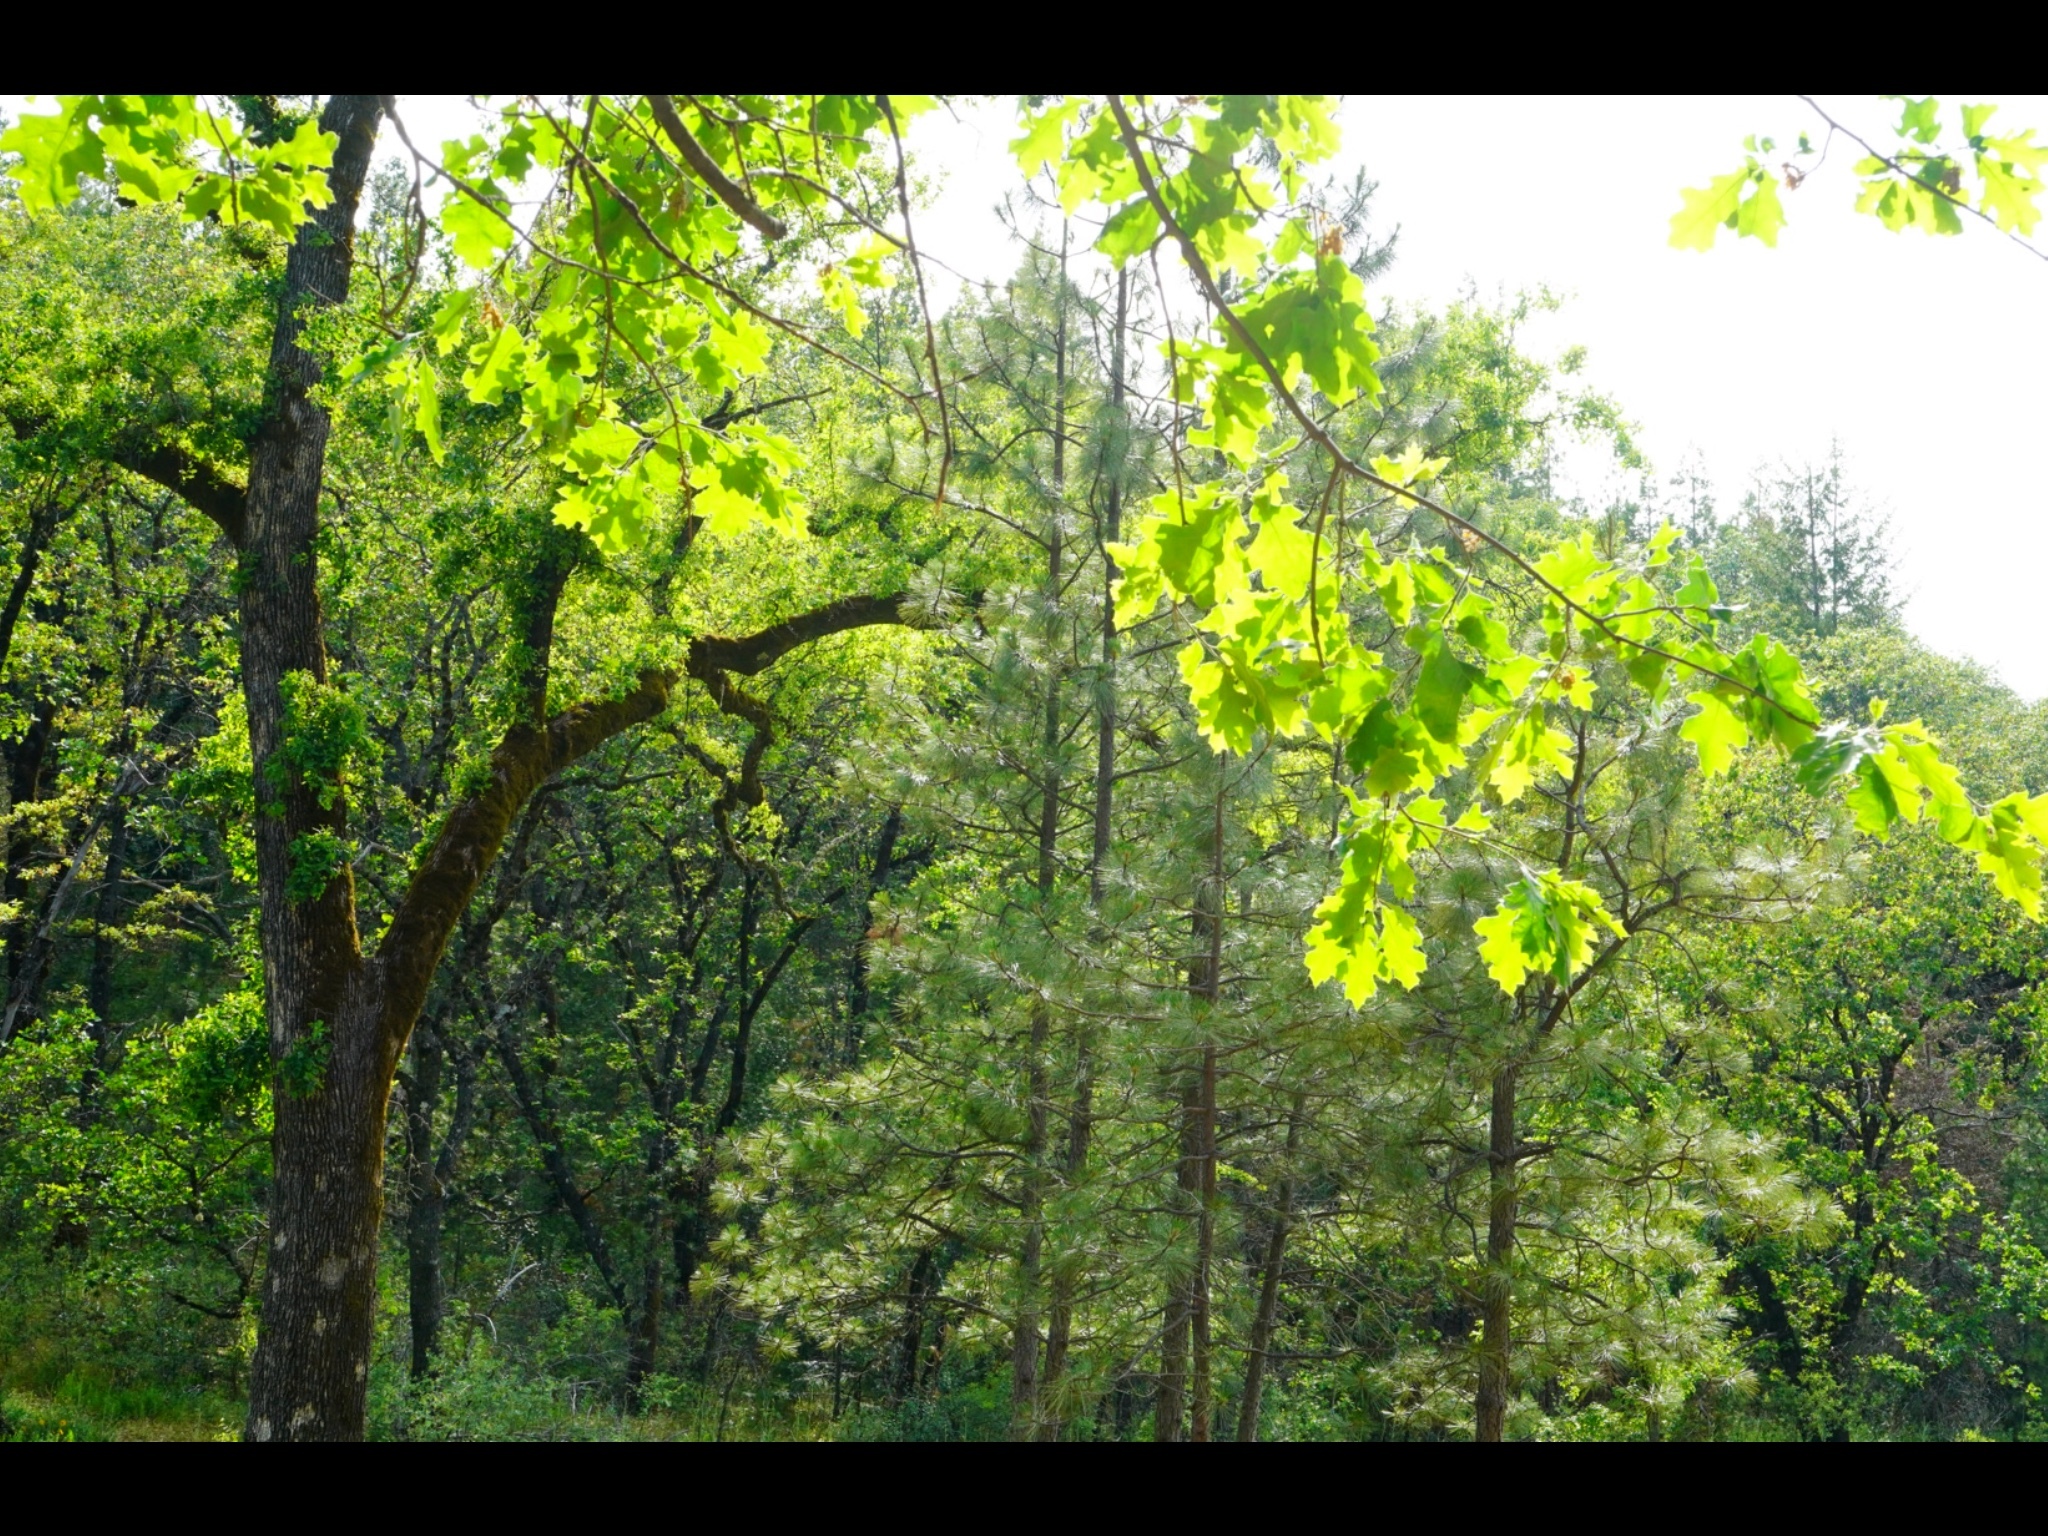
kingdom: Plantae
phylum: Tracheophyta
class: Magnoliopsida
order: Fagales
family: Fagaceae
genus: Quercus
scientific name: Quercus kelloggii
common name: California black oak
